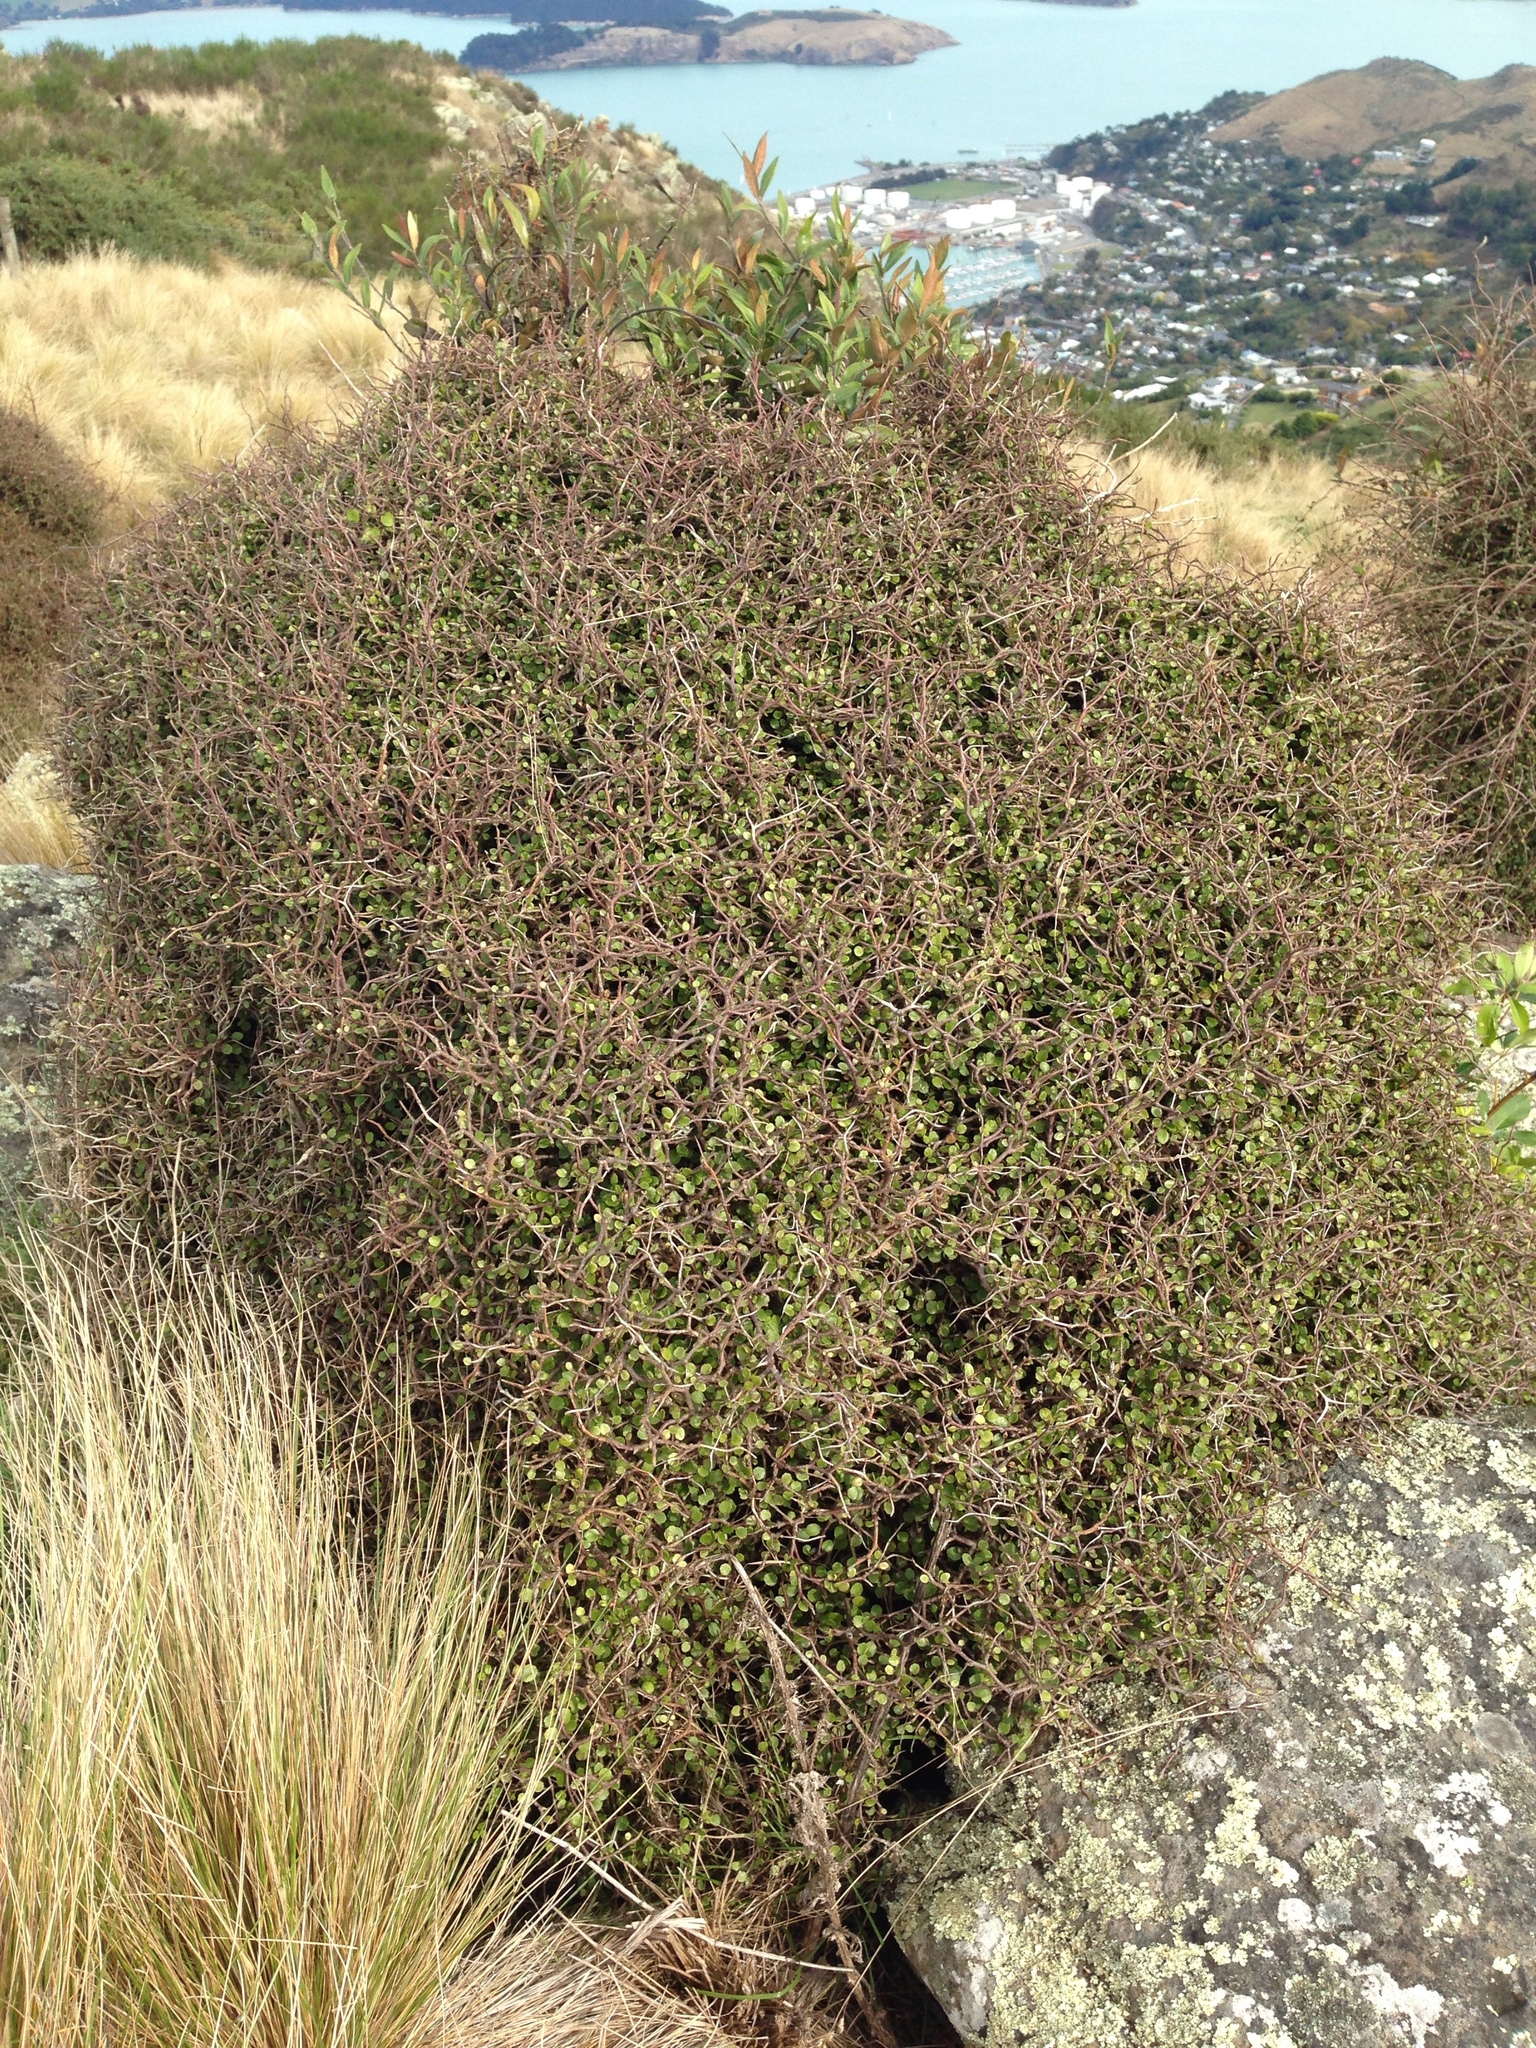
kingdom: Plantae
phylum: Tracheophyta
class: Magnoliopsida
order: Apiales
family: Araliaceae
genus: Raukaua
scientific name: Raukaua anomalus
